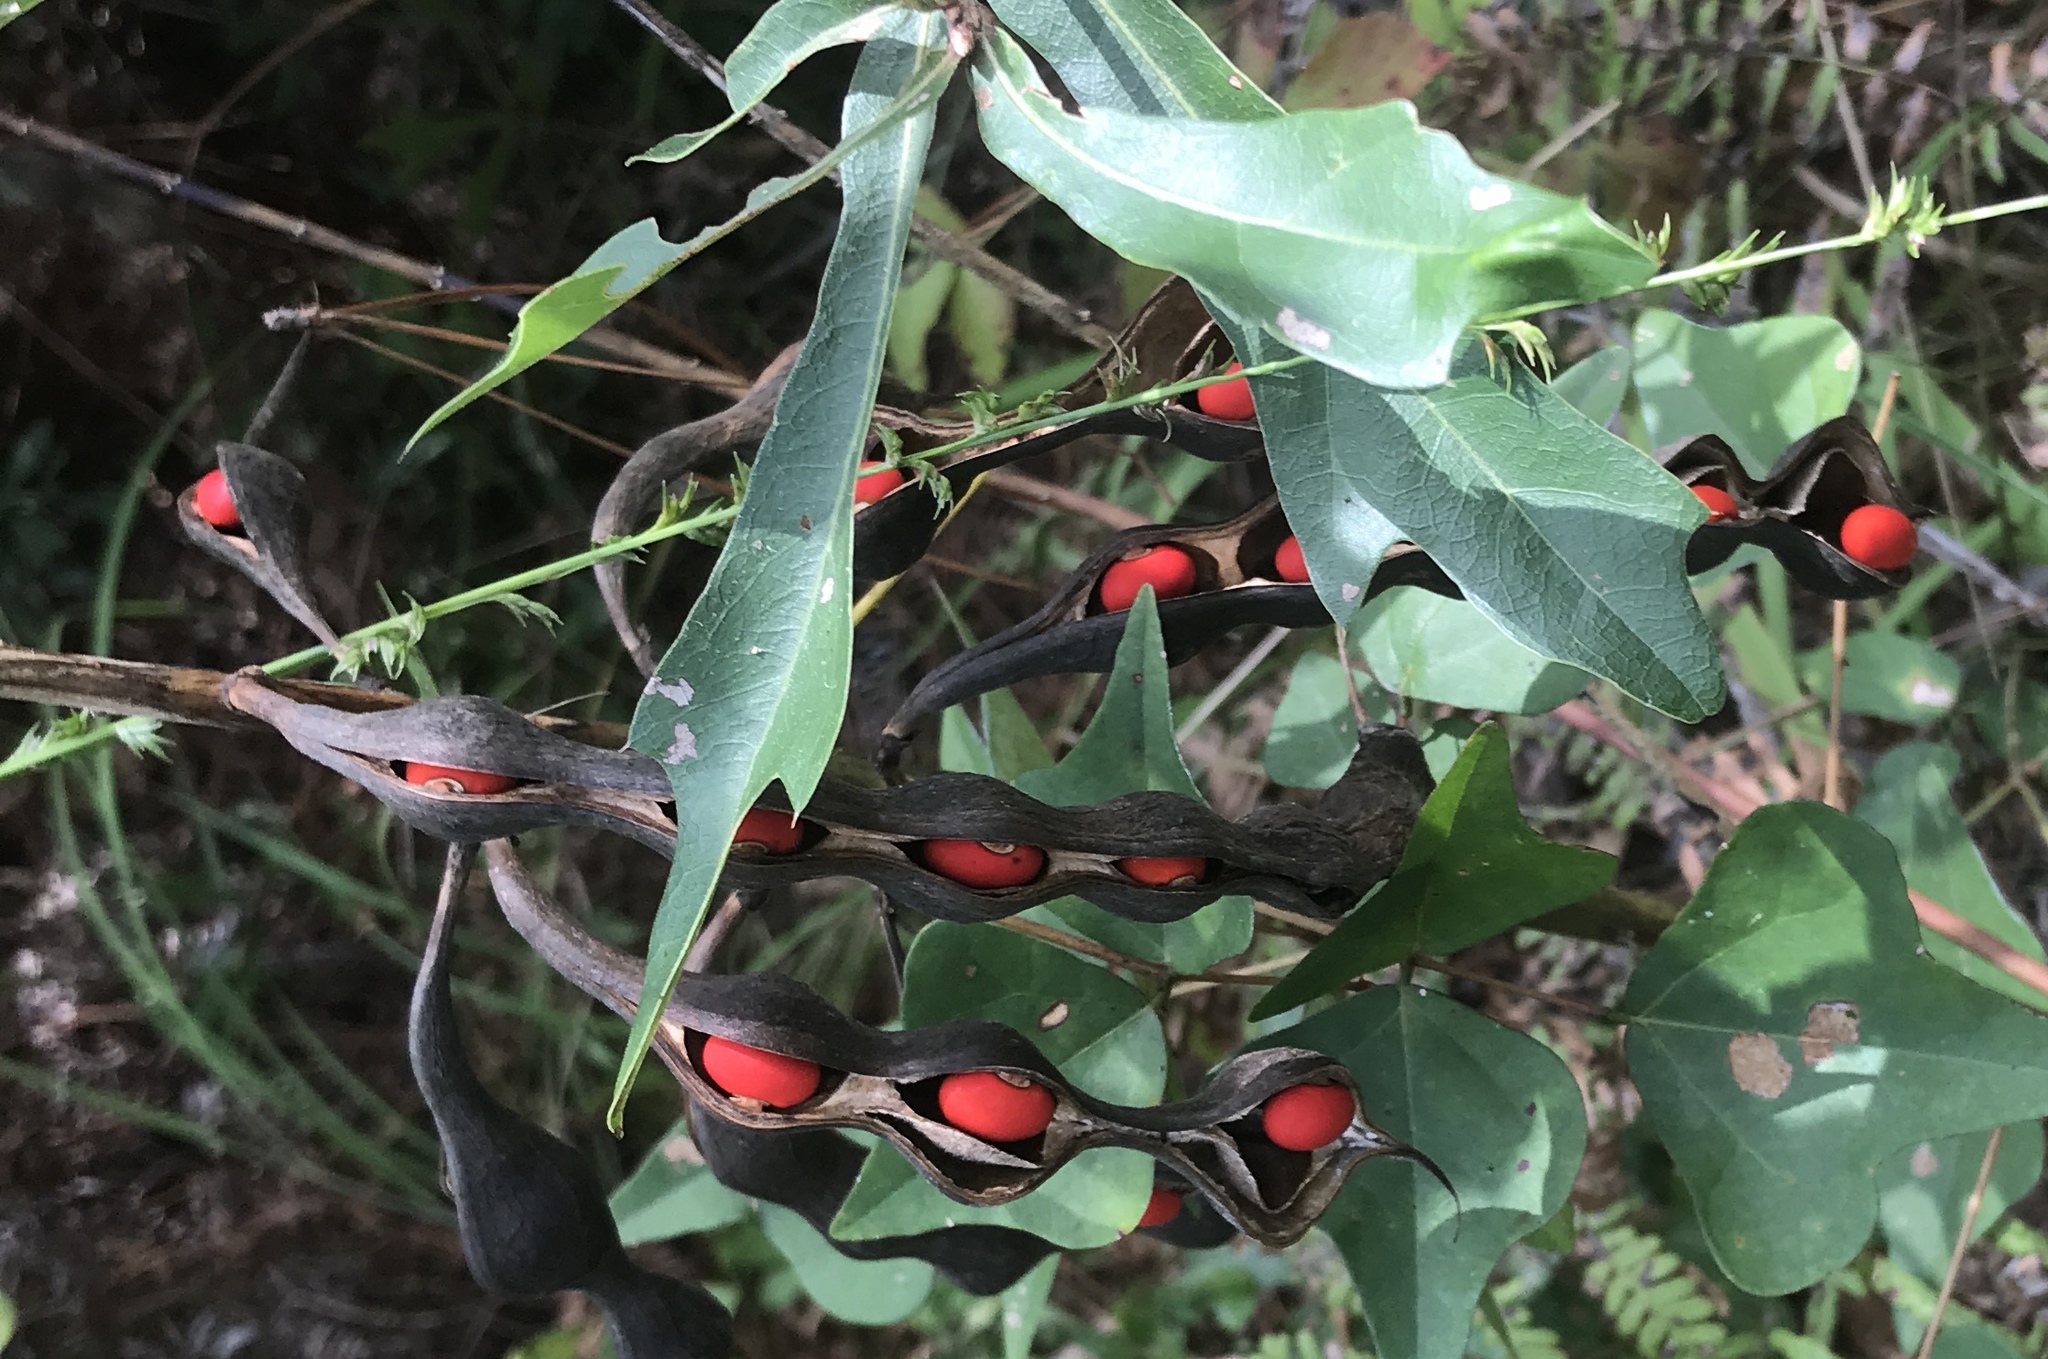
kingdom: Plantae
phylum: Tracheophyta
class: Magnoliopsida
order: Fabales
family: Fabaceae
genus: Erythrina
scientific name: Erythrina herbacea
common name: Coral-bean
